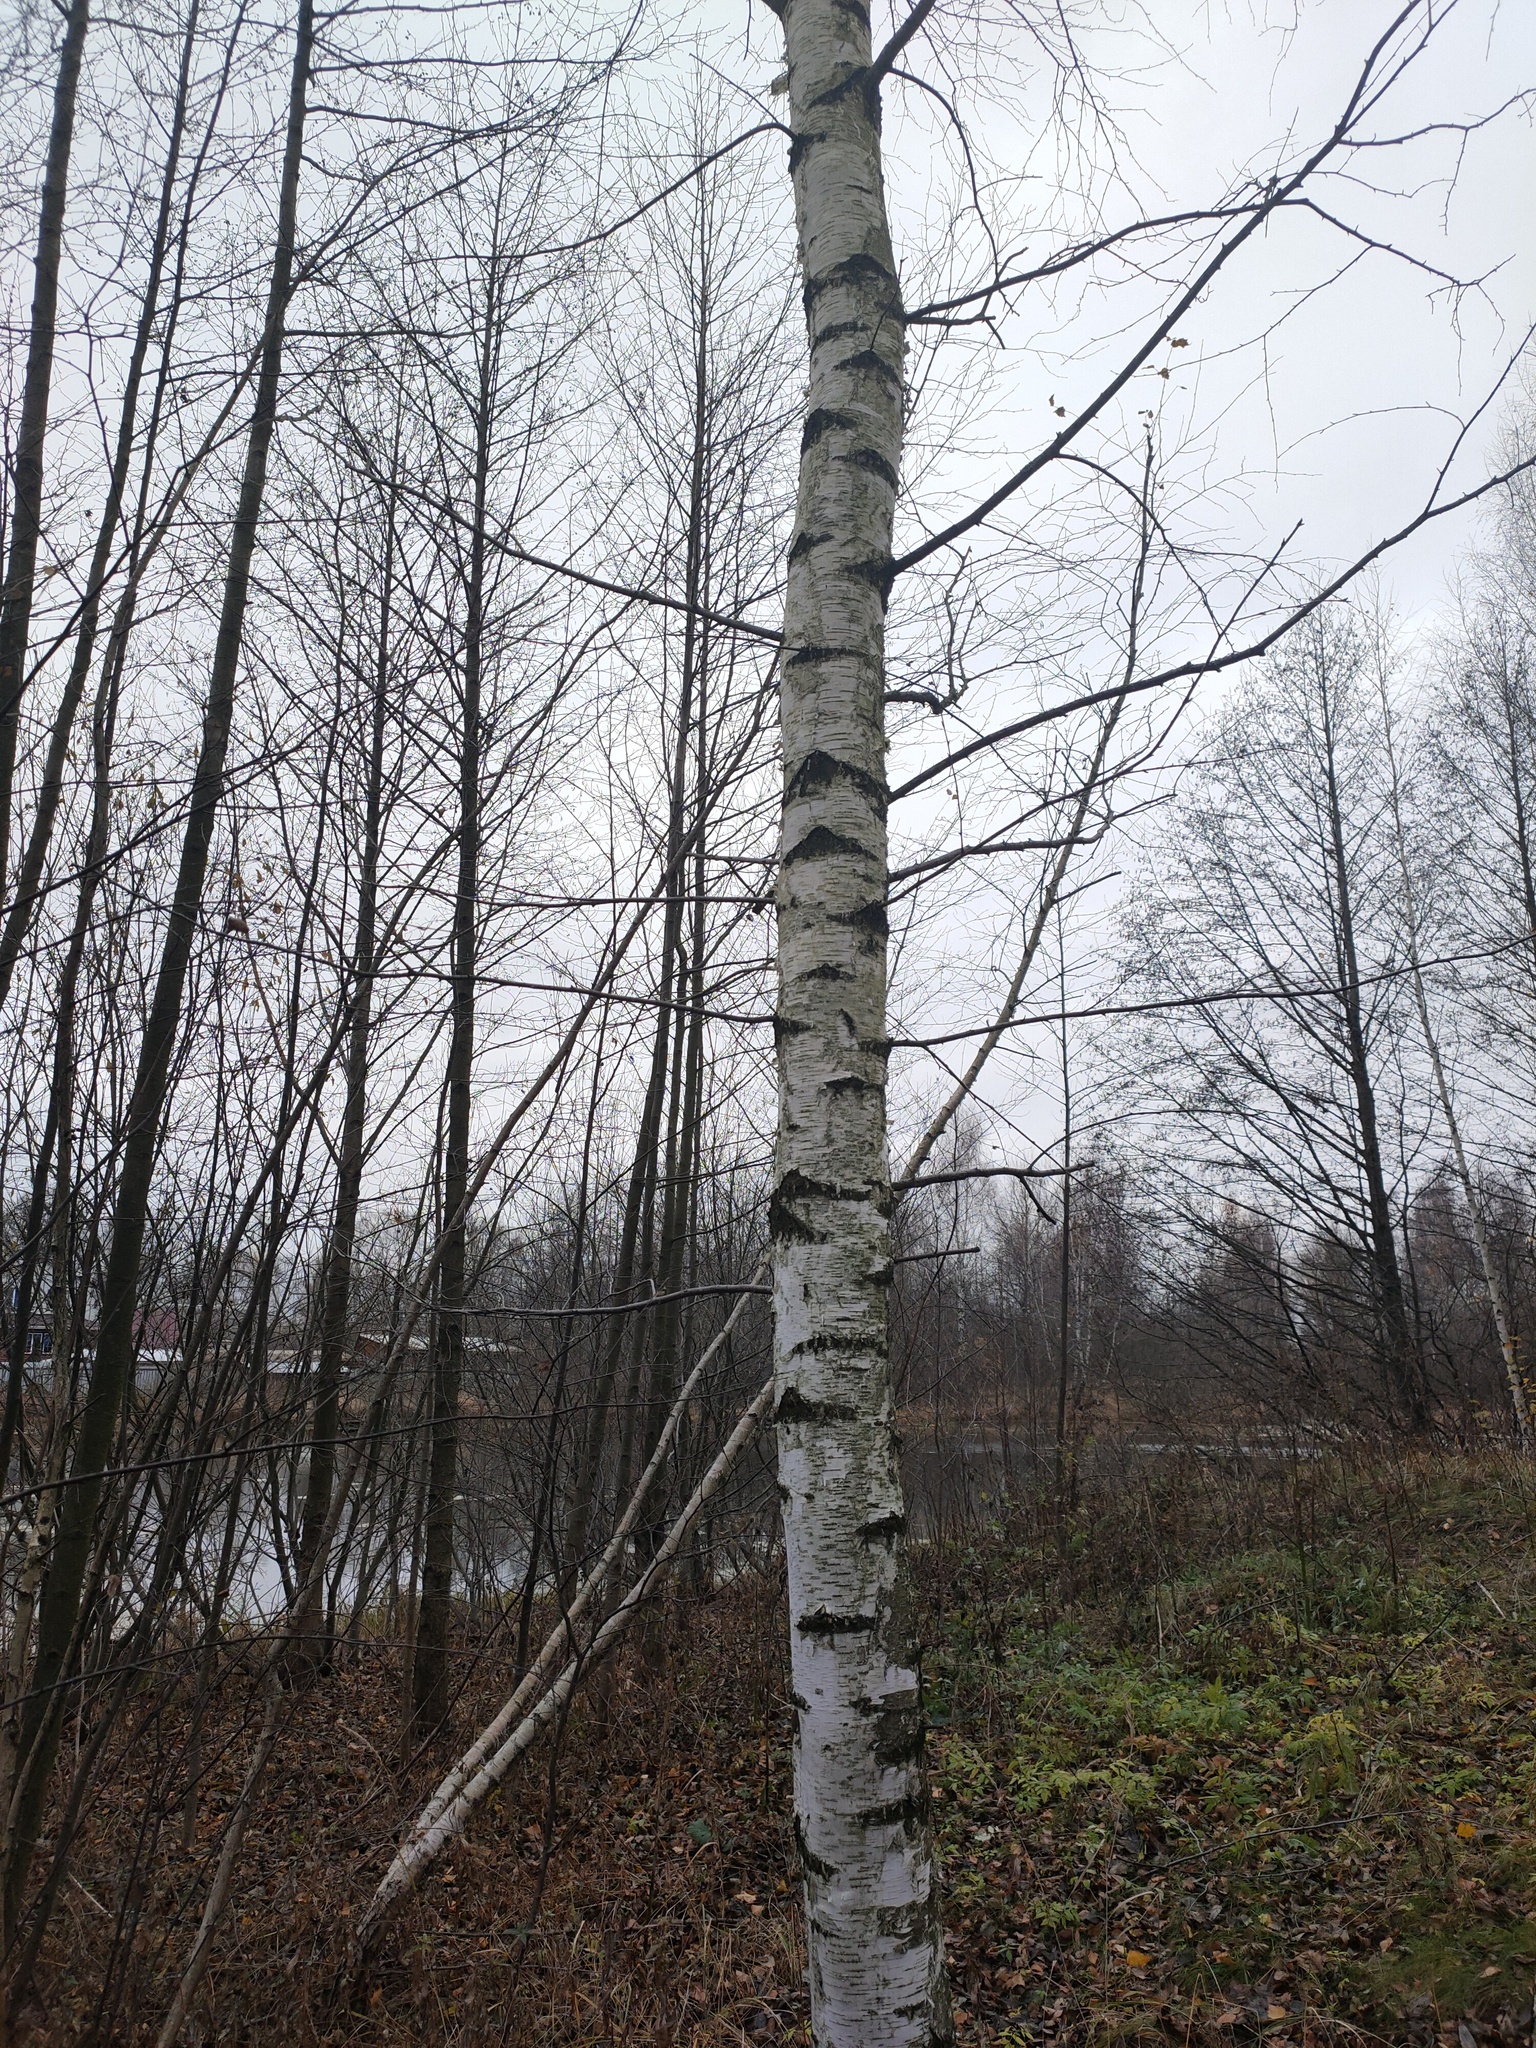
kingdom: Plantae
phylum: Tracheophyta
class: Magnoliopsida
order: Fagales
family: Betulaceae
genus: Betula
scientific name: Betula pubescens
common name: Downy birch
